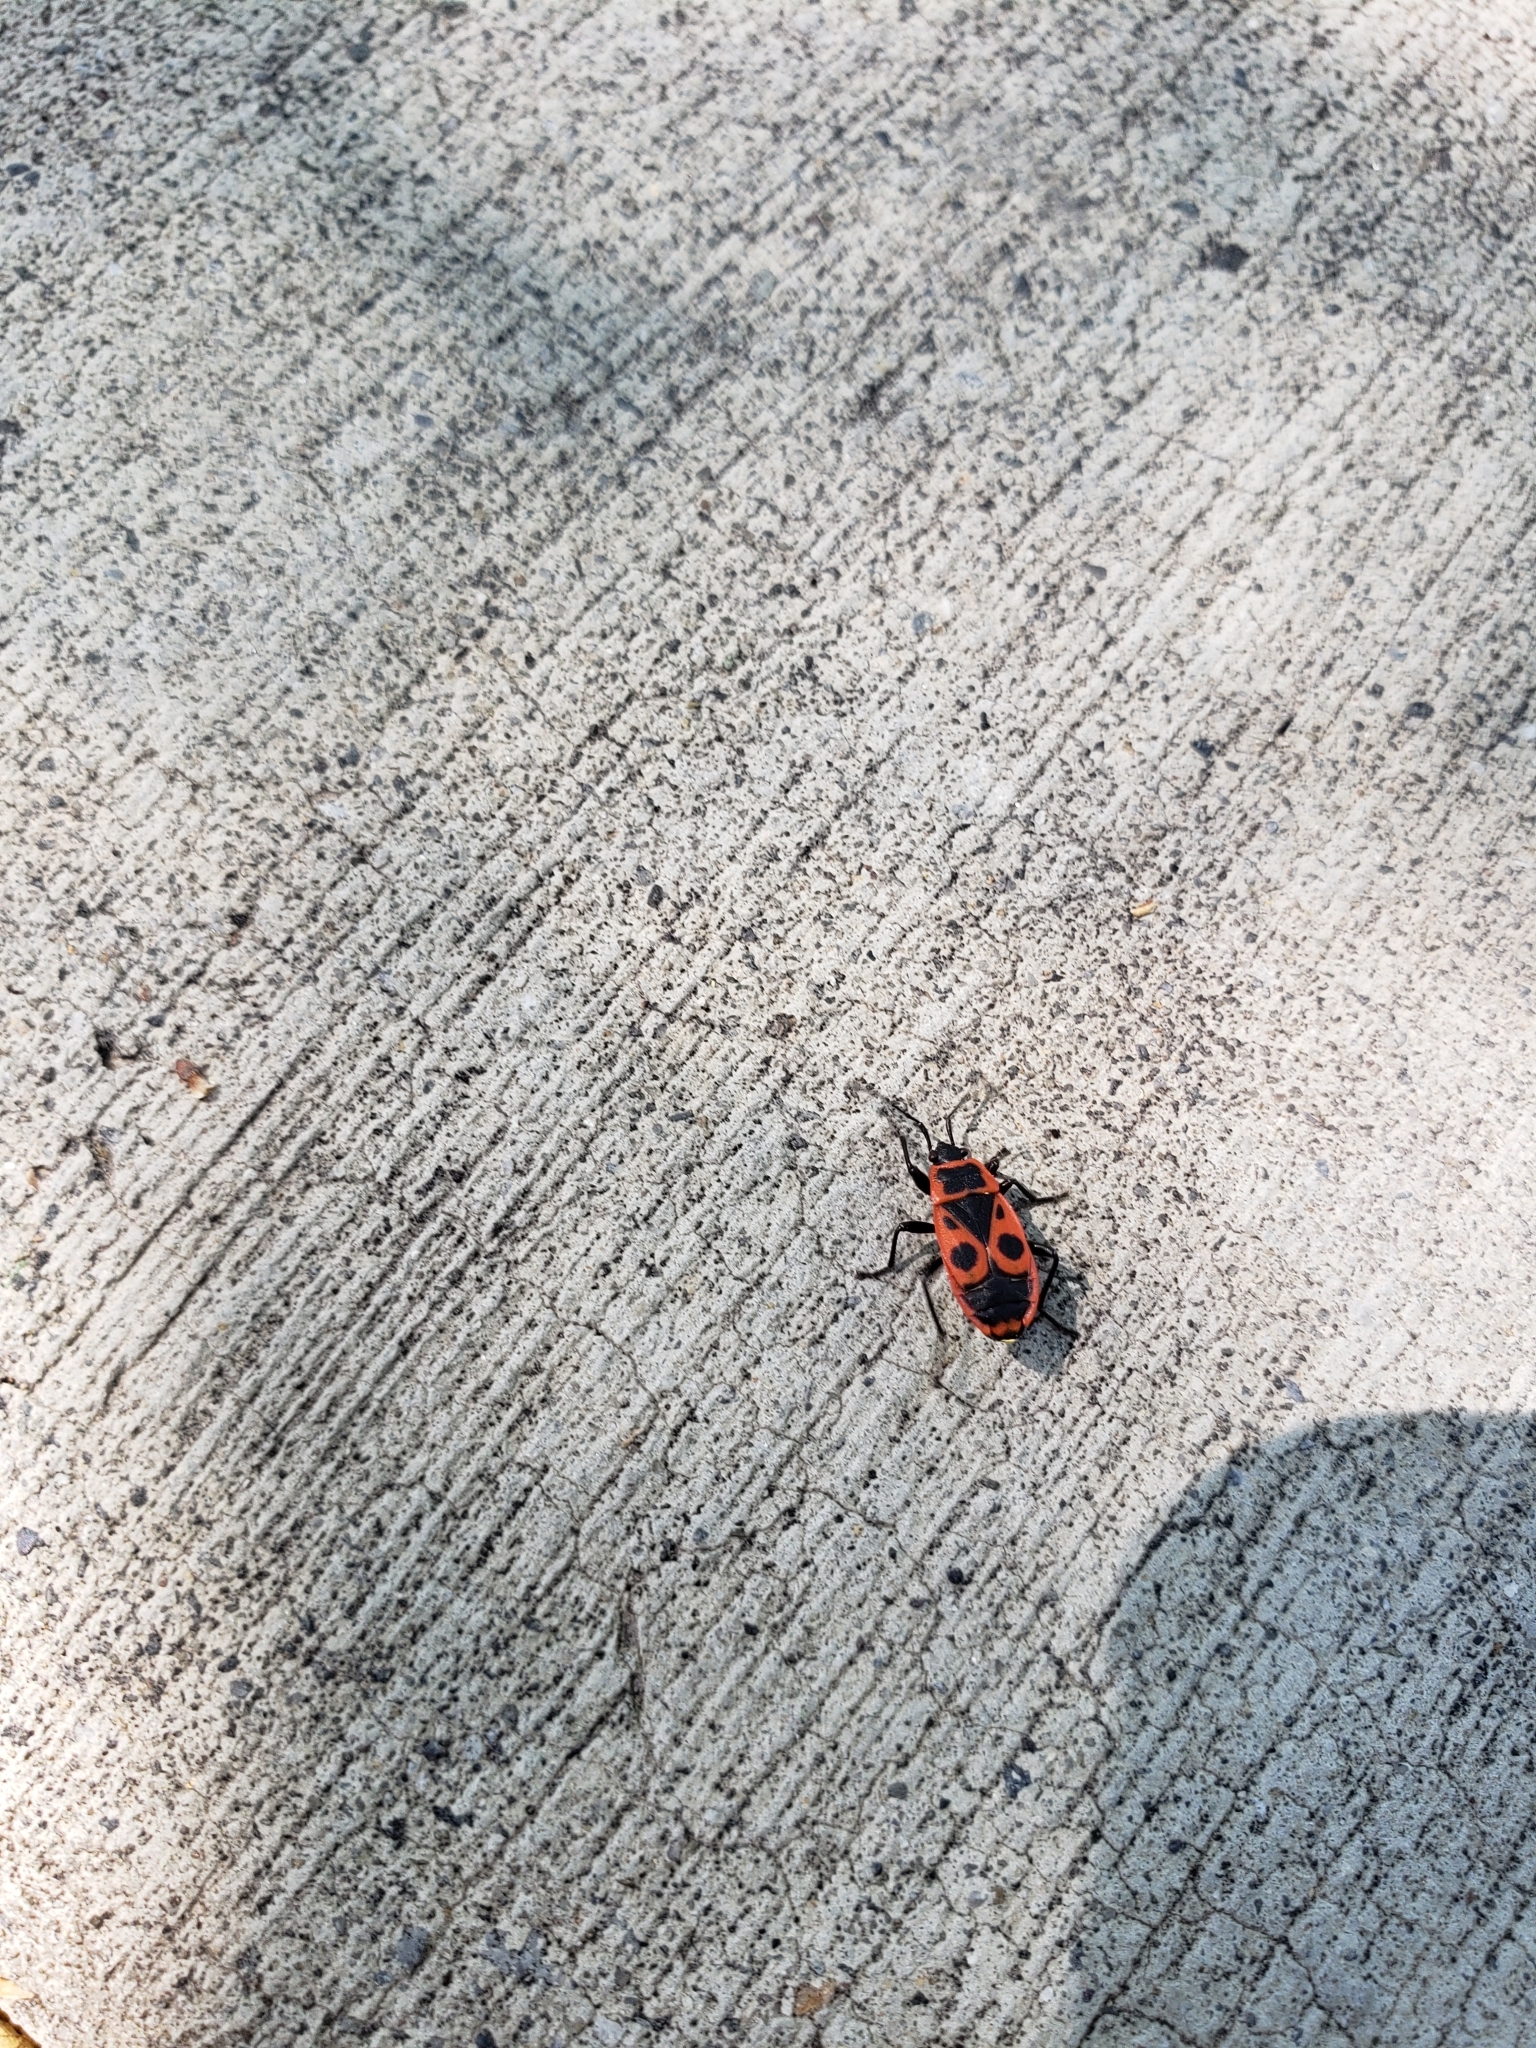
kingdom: Animalia
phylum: Arthropoda
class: Insecta
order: Hemiptera
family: Pyrrhocoridae
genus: Pyrrhocoris
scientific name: Pyrrhocoris apterus
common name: Firebug
